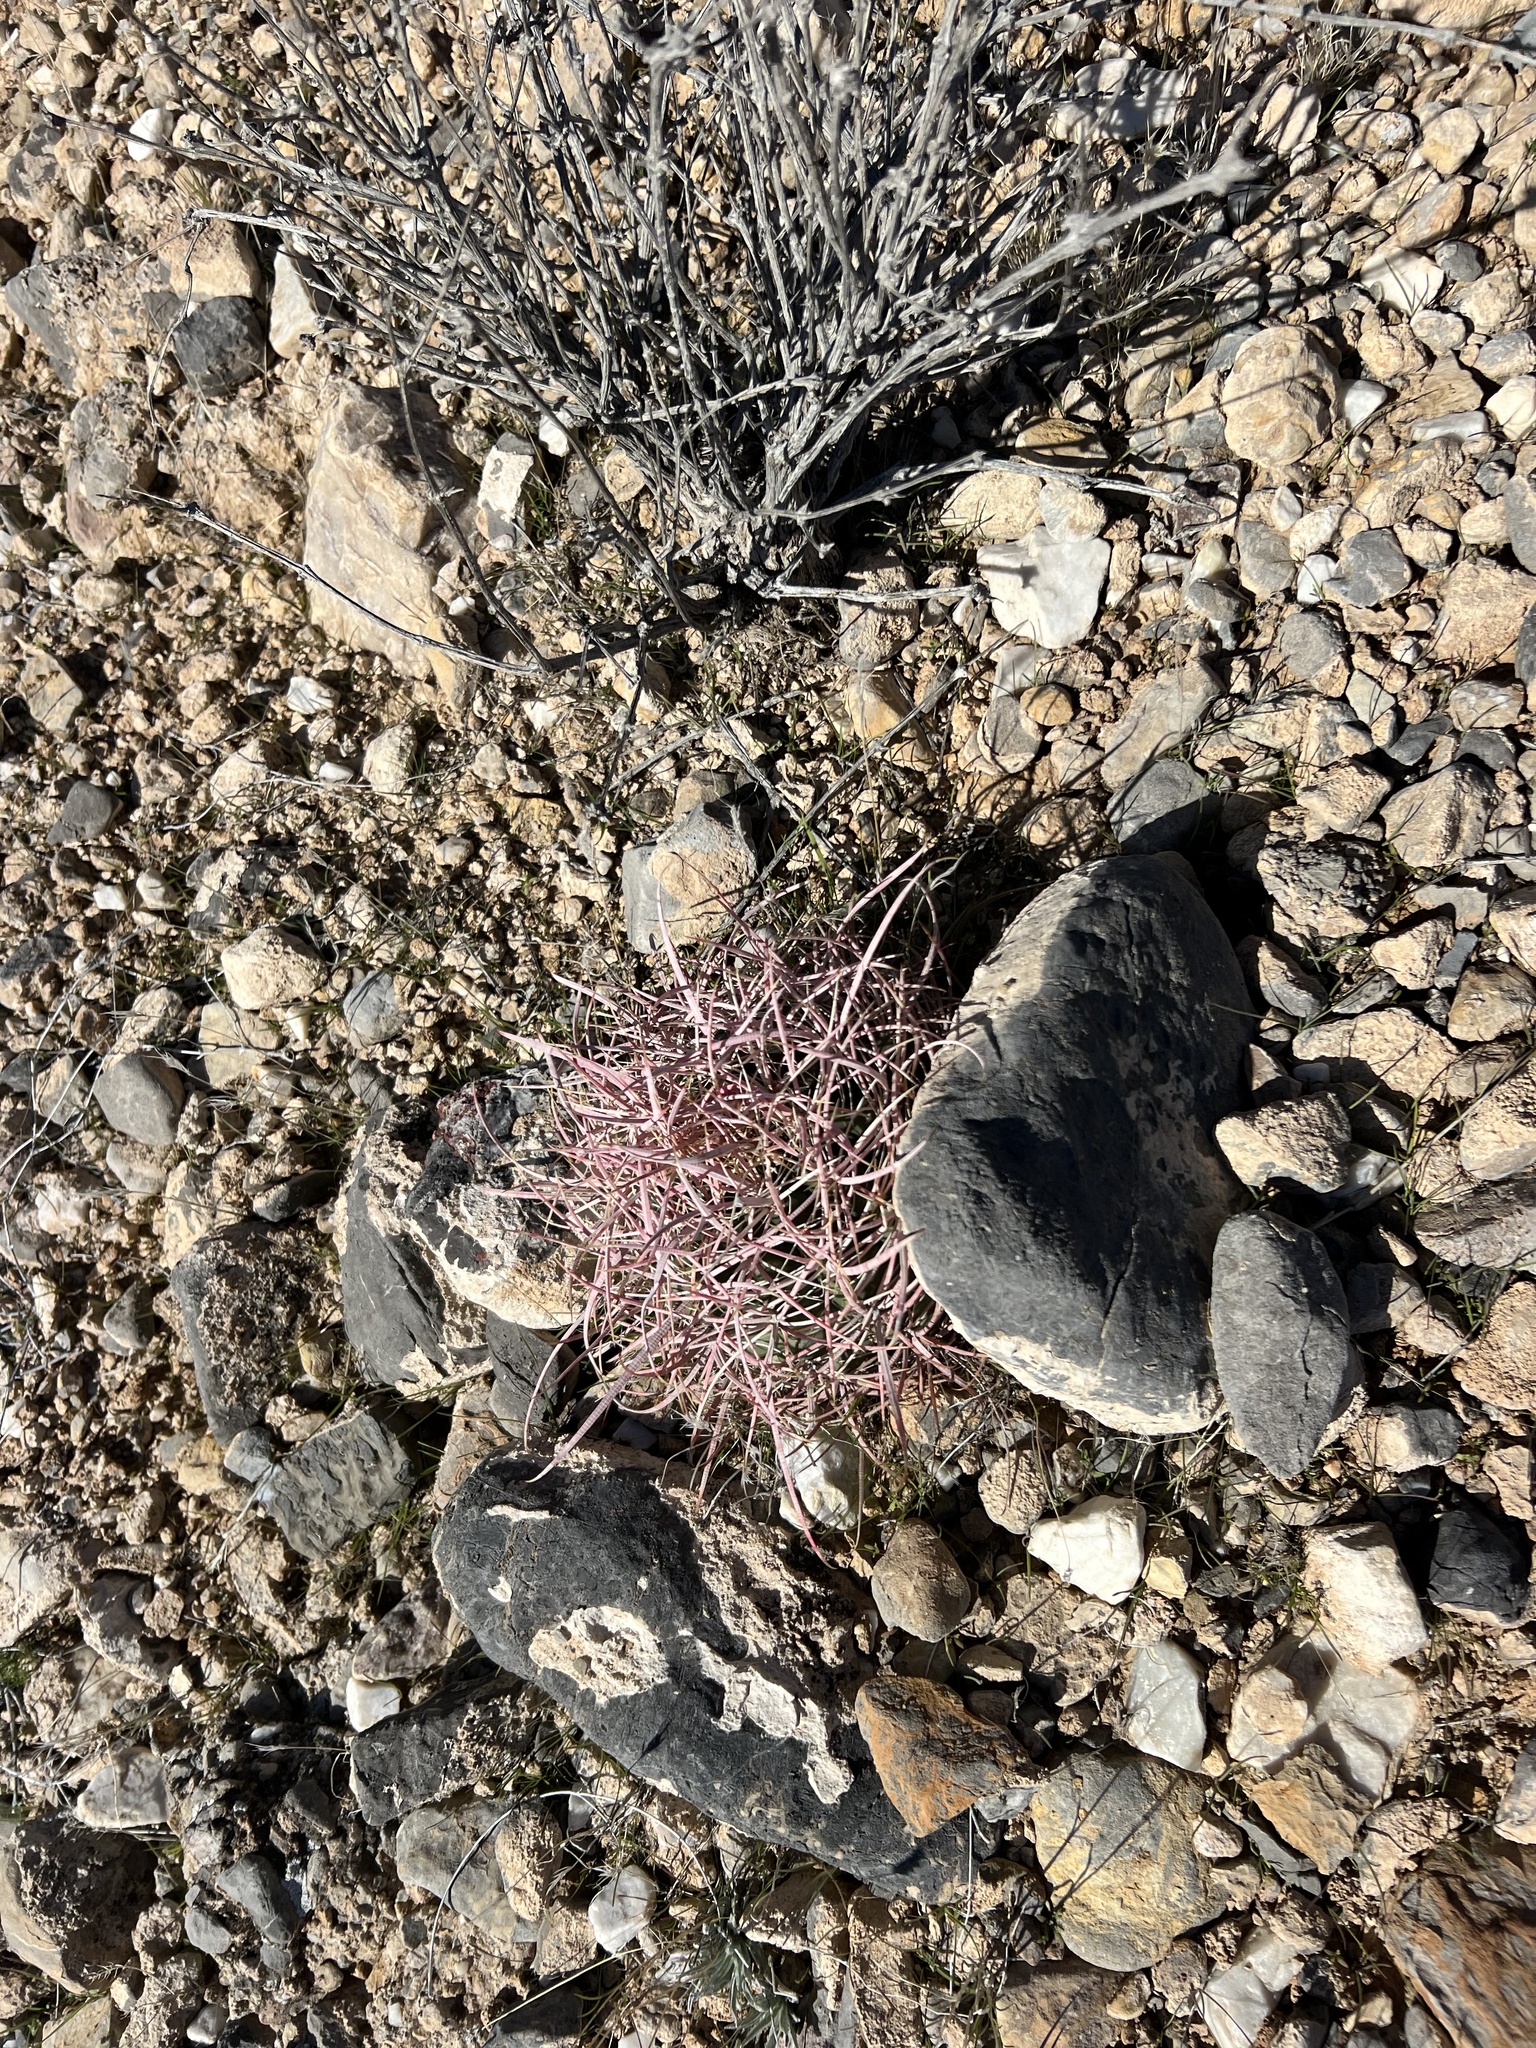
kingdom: Plantae
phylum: Tracheophyta
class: Magnoliopsida
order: Caryophyllales
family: Cactaceae
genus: Ferocactus
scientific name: Ferocactus cylindraceus
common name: California barrel cactus
